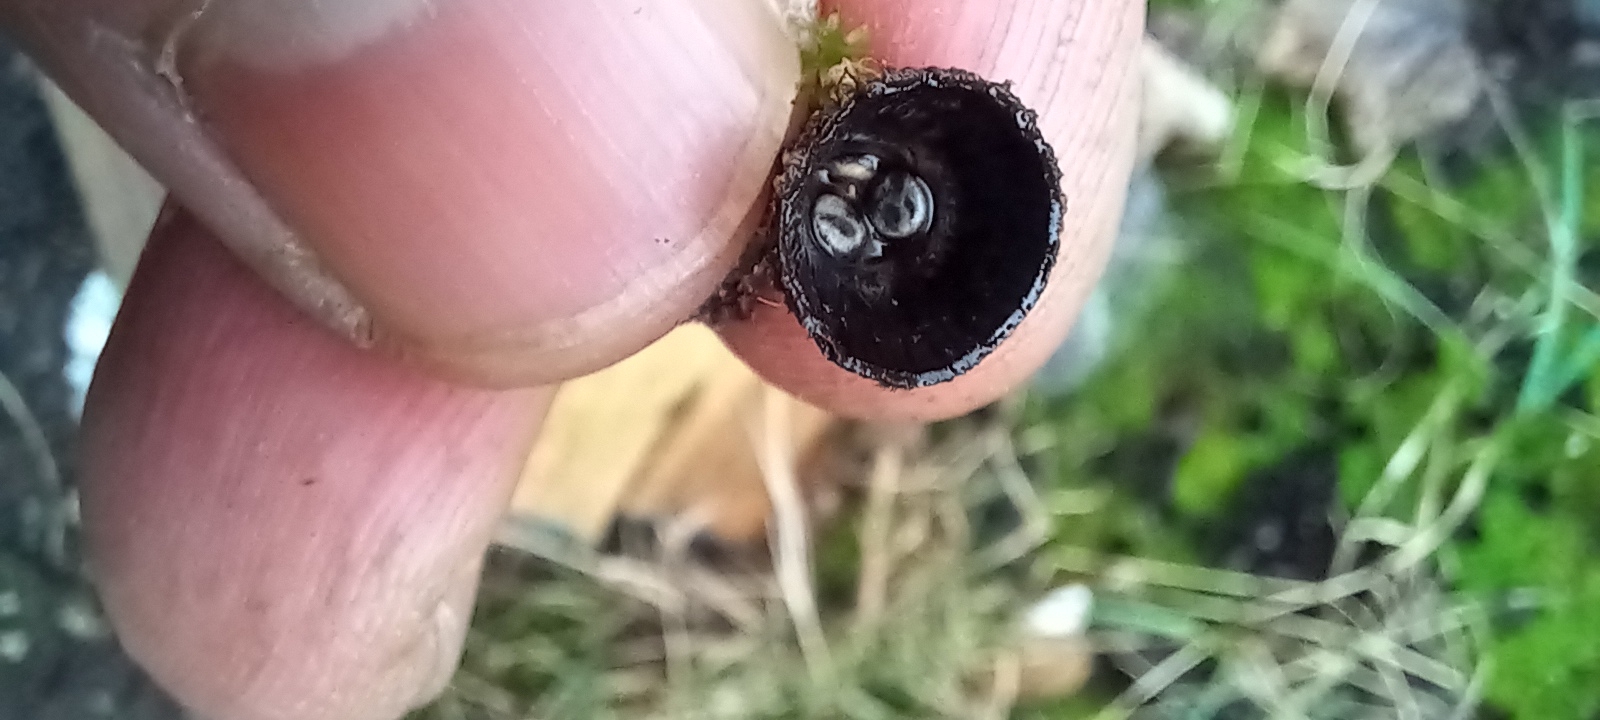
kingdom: Fungi
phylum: Basidiomycota
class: Agaricomycetes
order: Agaricales
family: Agaricaceae
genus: Cyathus
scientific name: Cyathus striatus
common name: Fluted bird's nest
